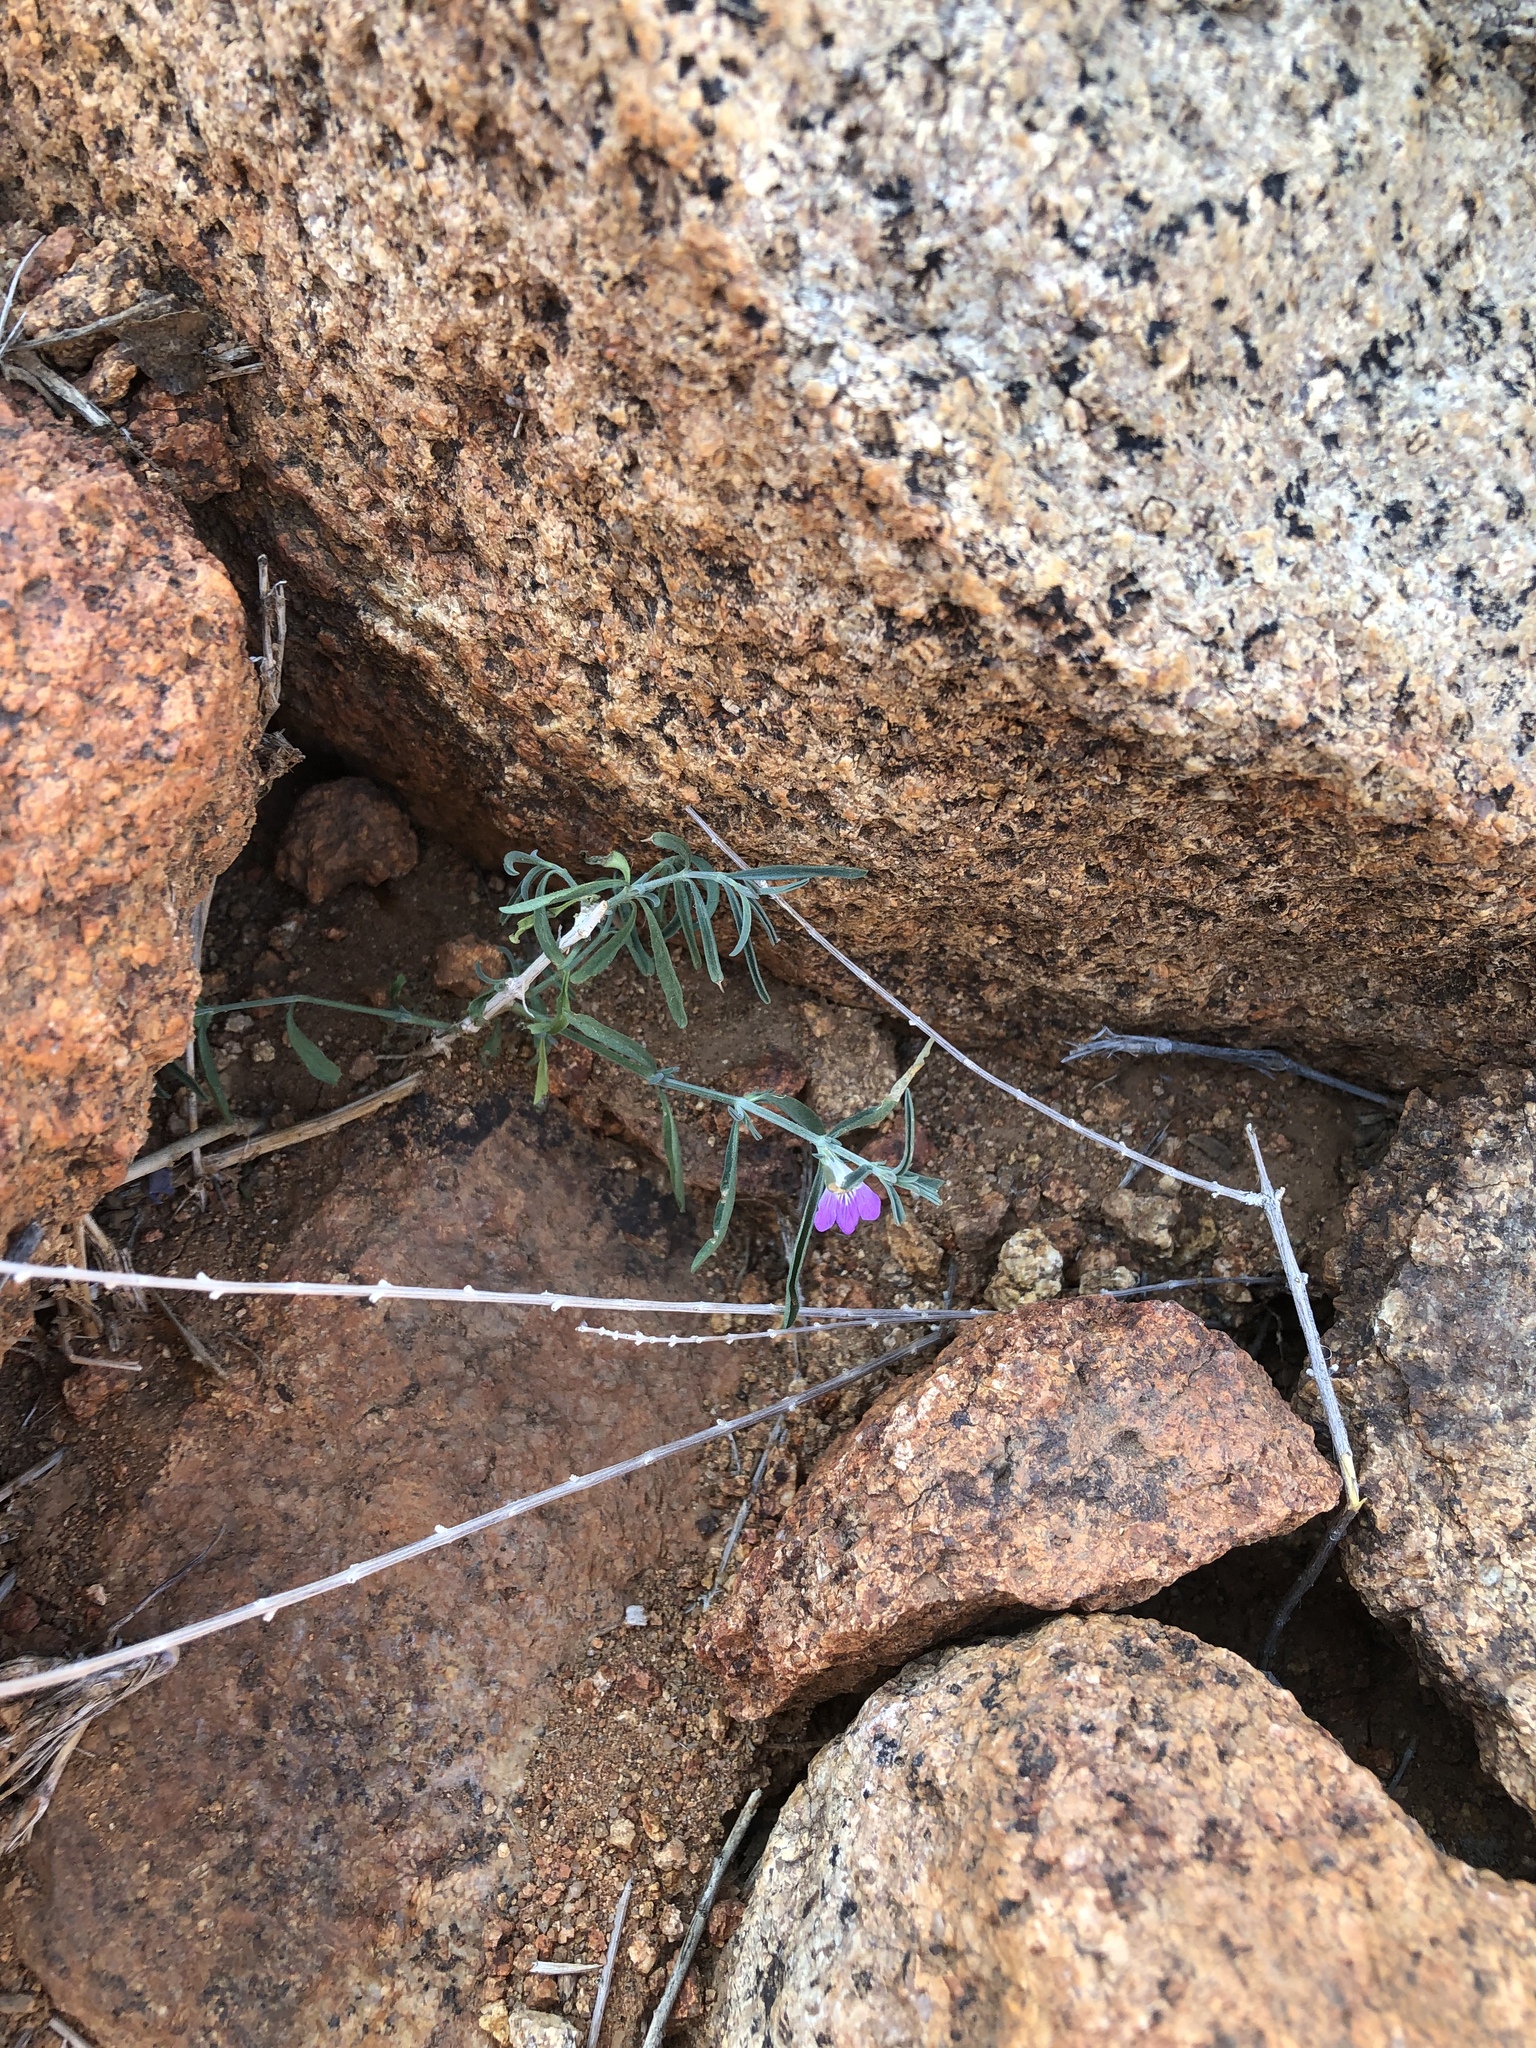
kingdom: Plantae
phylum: Tracheophyta
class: Magnoliopsida
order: Lamiales
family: Acanthaceae
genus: Pogonospermum
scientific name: Pogonospermum
